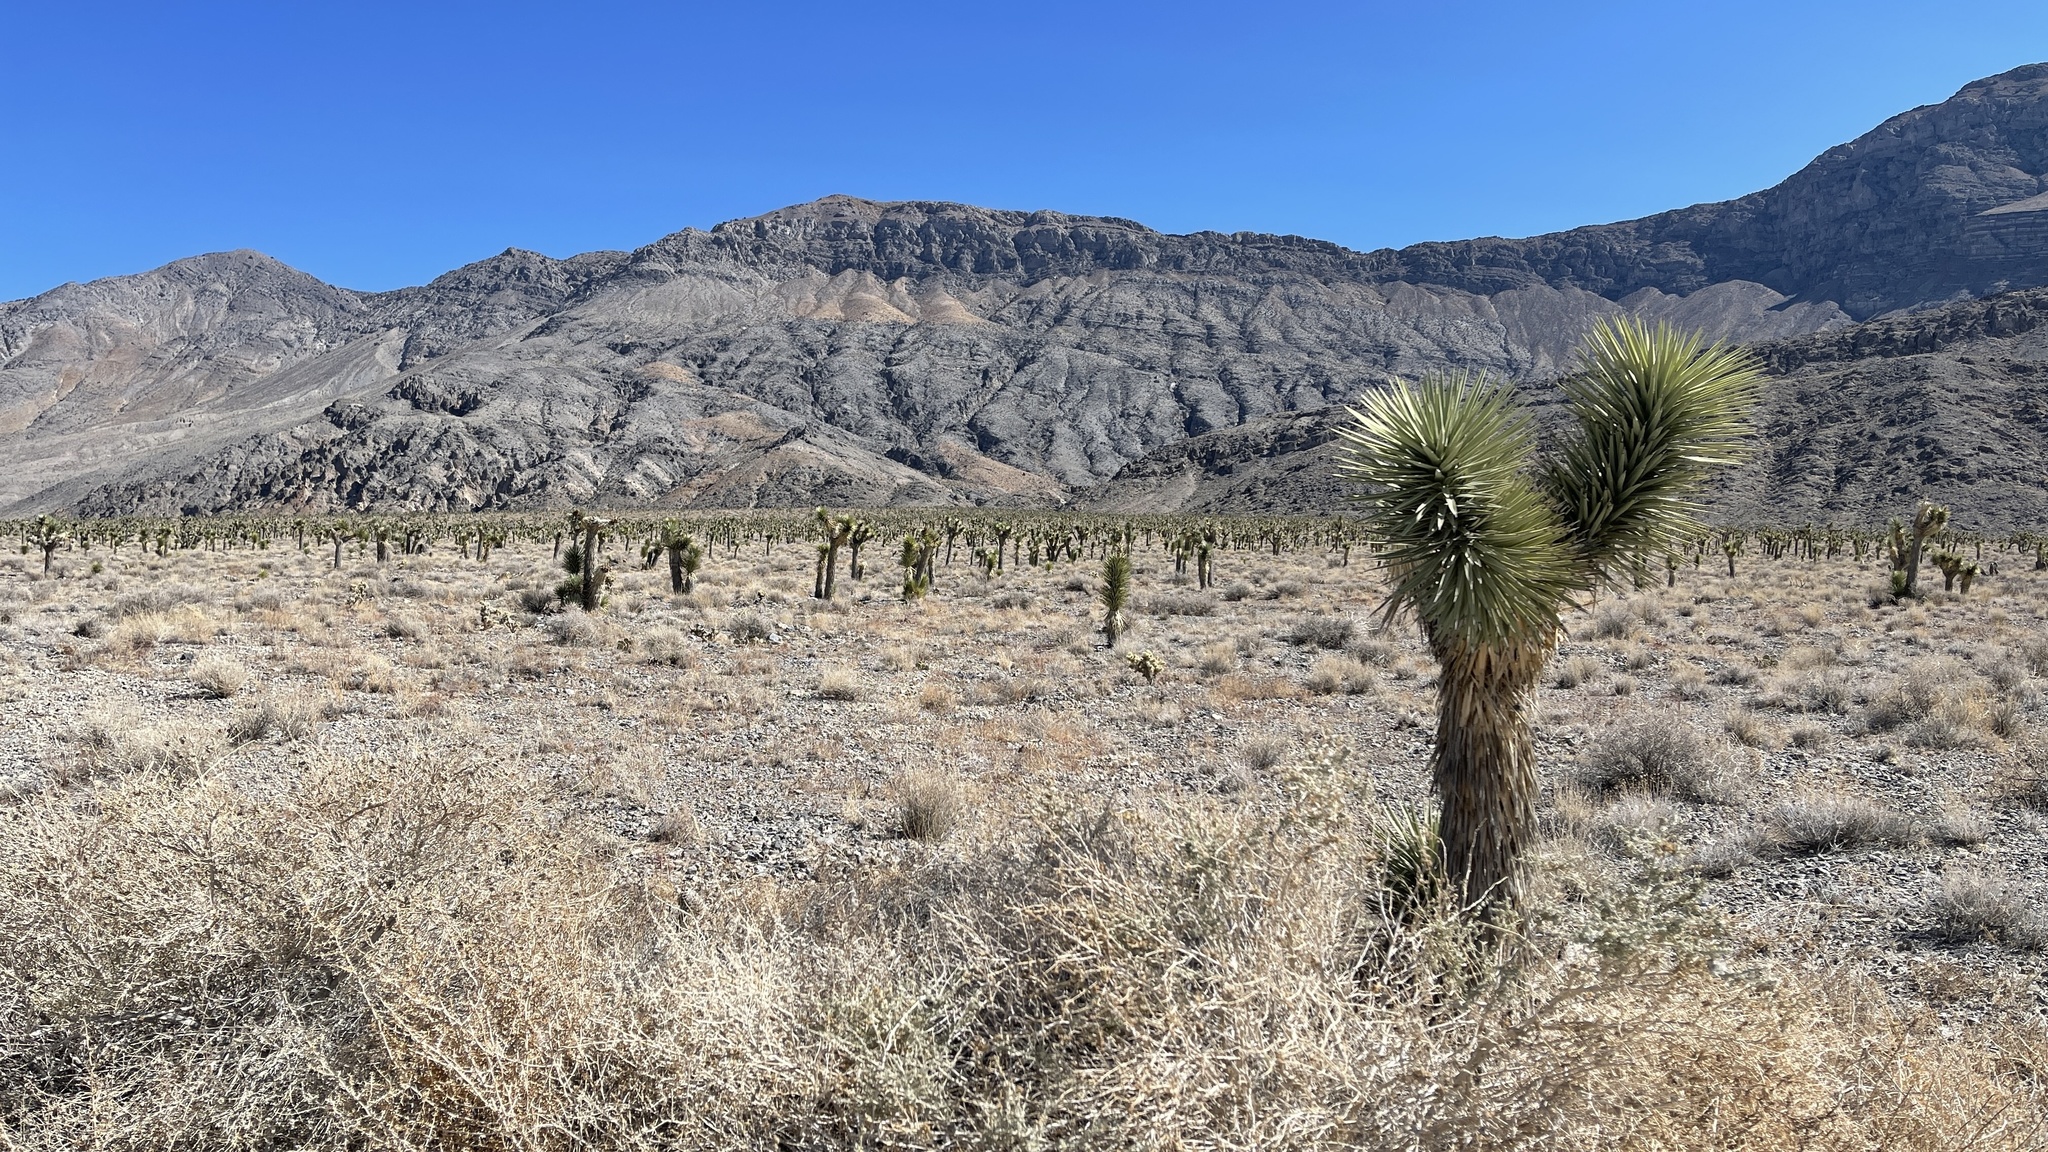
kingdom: Plantae
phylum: Tracheophyta
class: Liliopsida
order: Asparagales
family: Asparagaceae
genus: Yucca
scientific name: Yucca brevifolia
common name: Joshua tree
